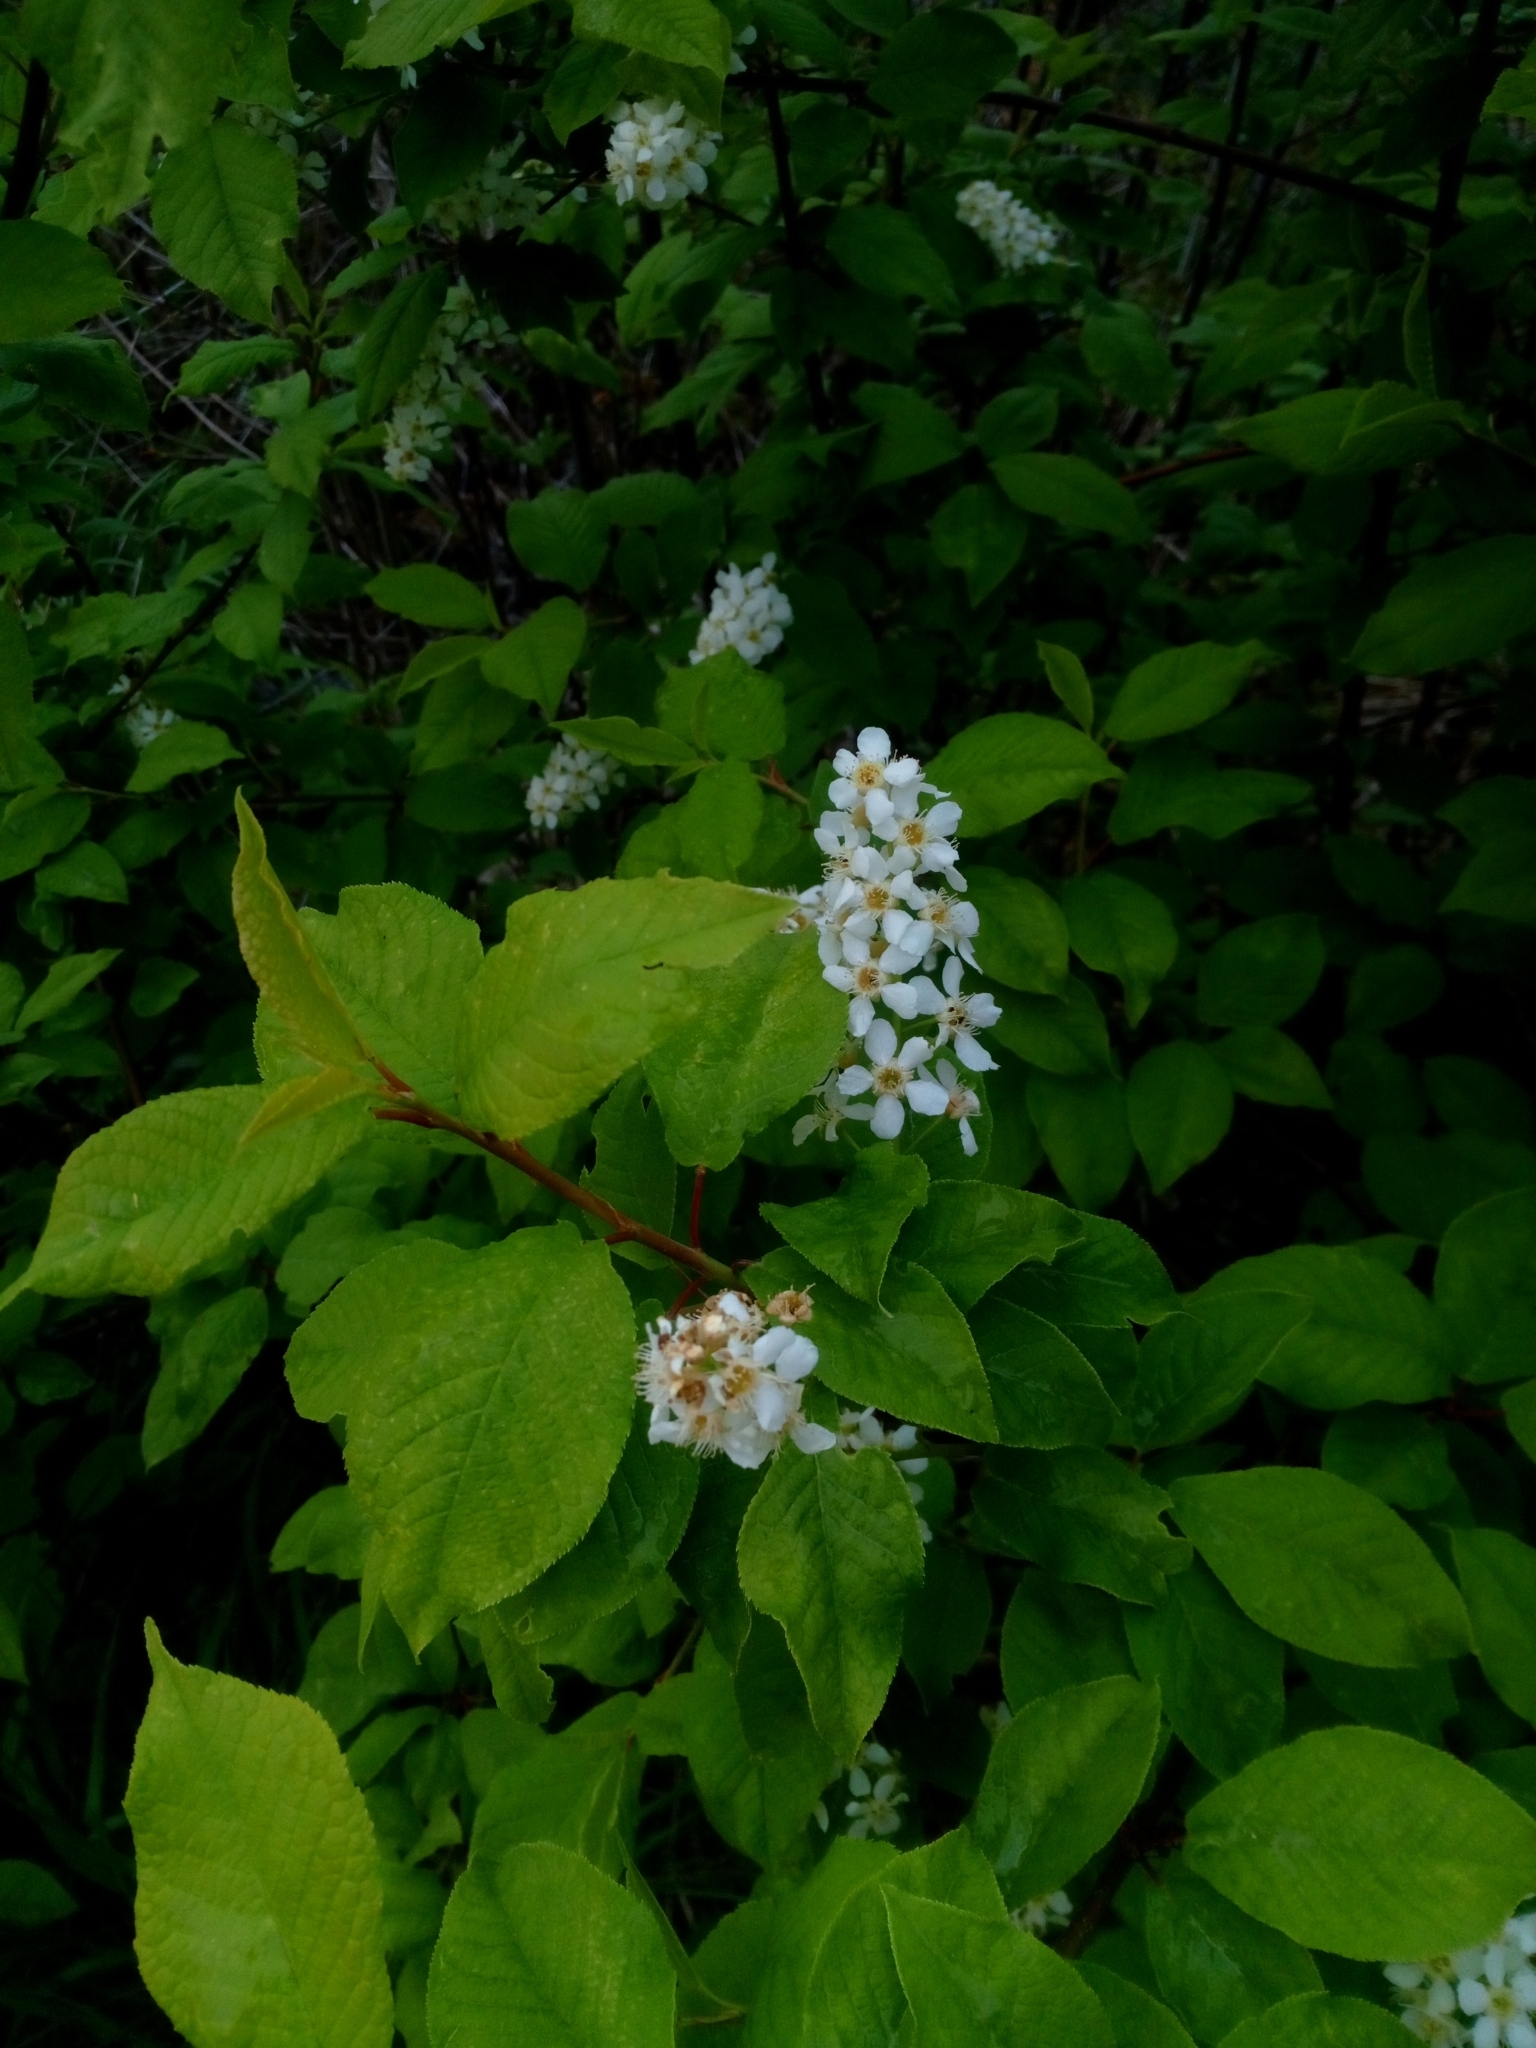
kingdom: Plantae
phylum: Tracheophyta
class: Magnoliopsida
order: Rosales
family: Rosaceae
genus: Prunus
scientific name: Prunus padus
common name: Bird cherry
